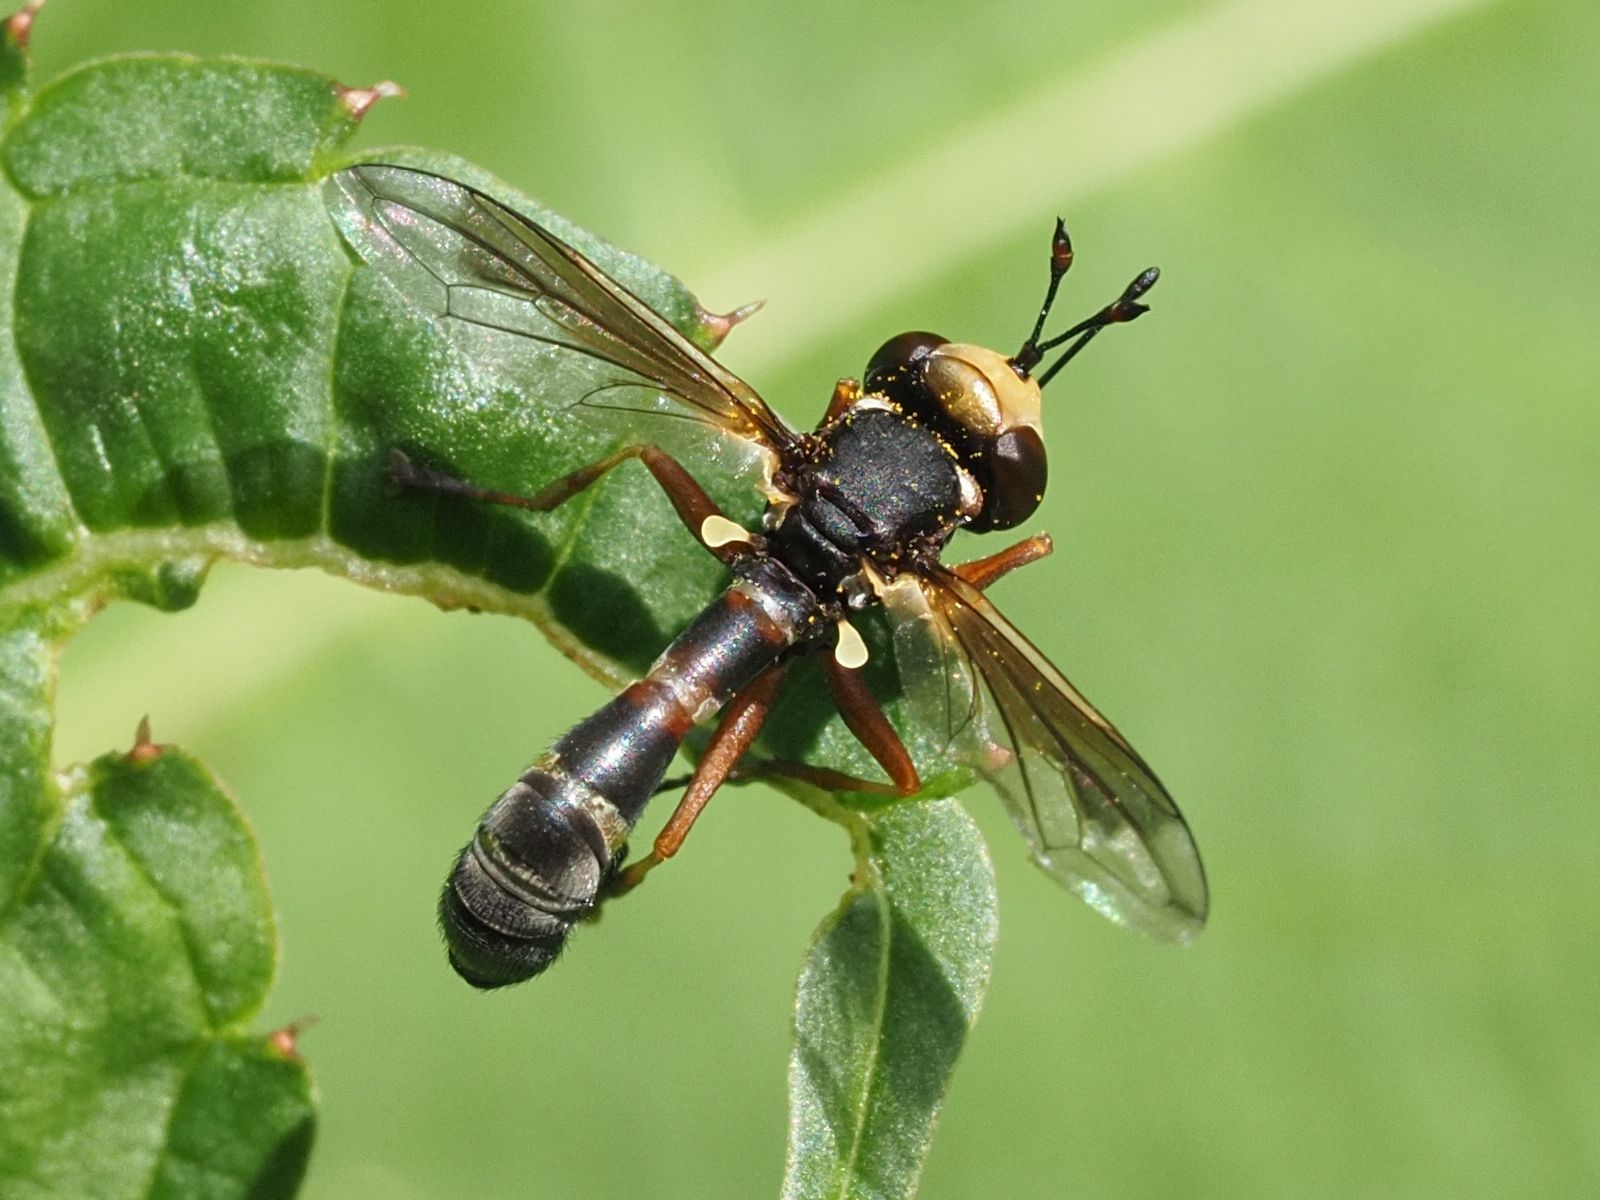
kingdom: Animalia
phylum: Arthropoda
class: Insecta
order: Diptera
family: Conopidae
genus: Physocephala
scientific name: Physocephala vittata
